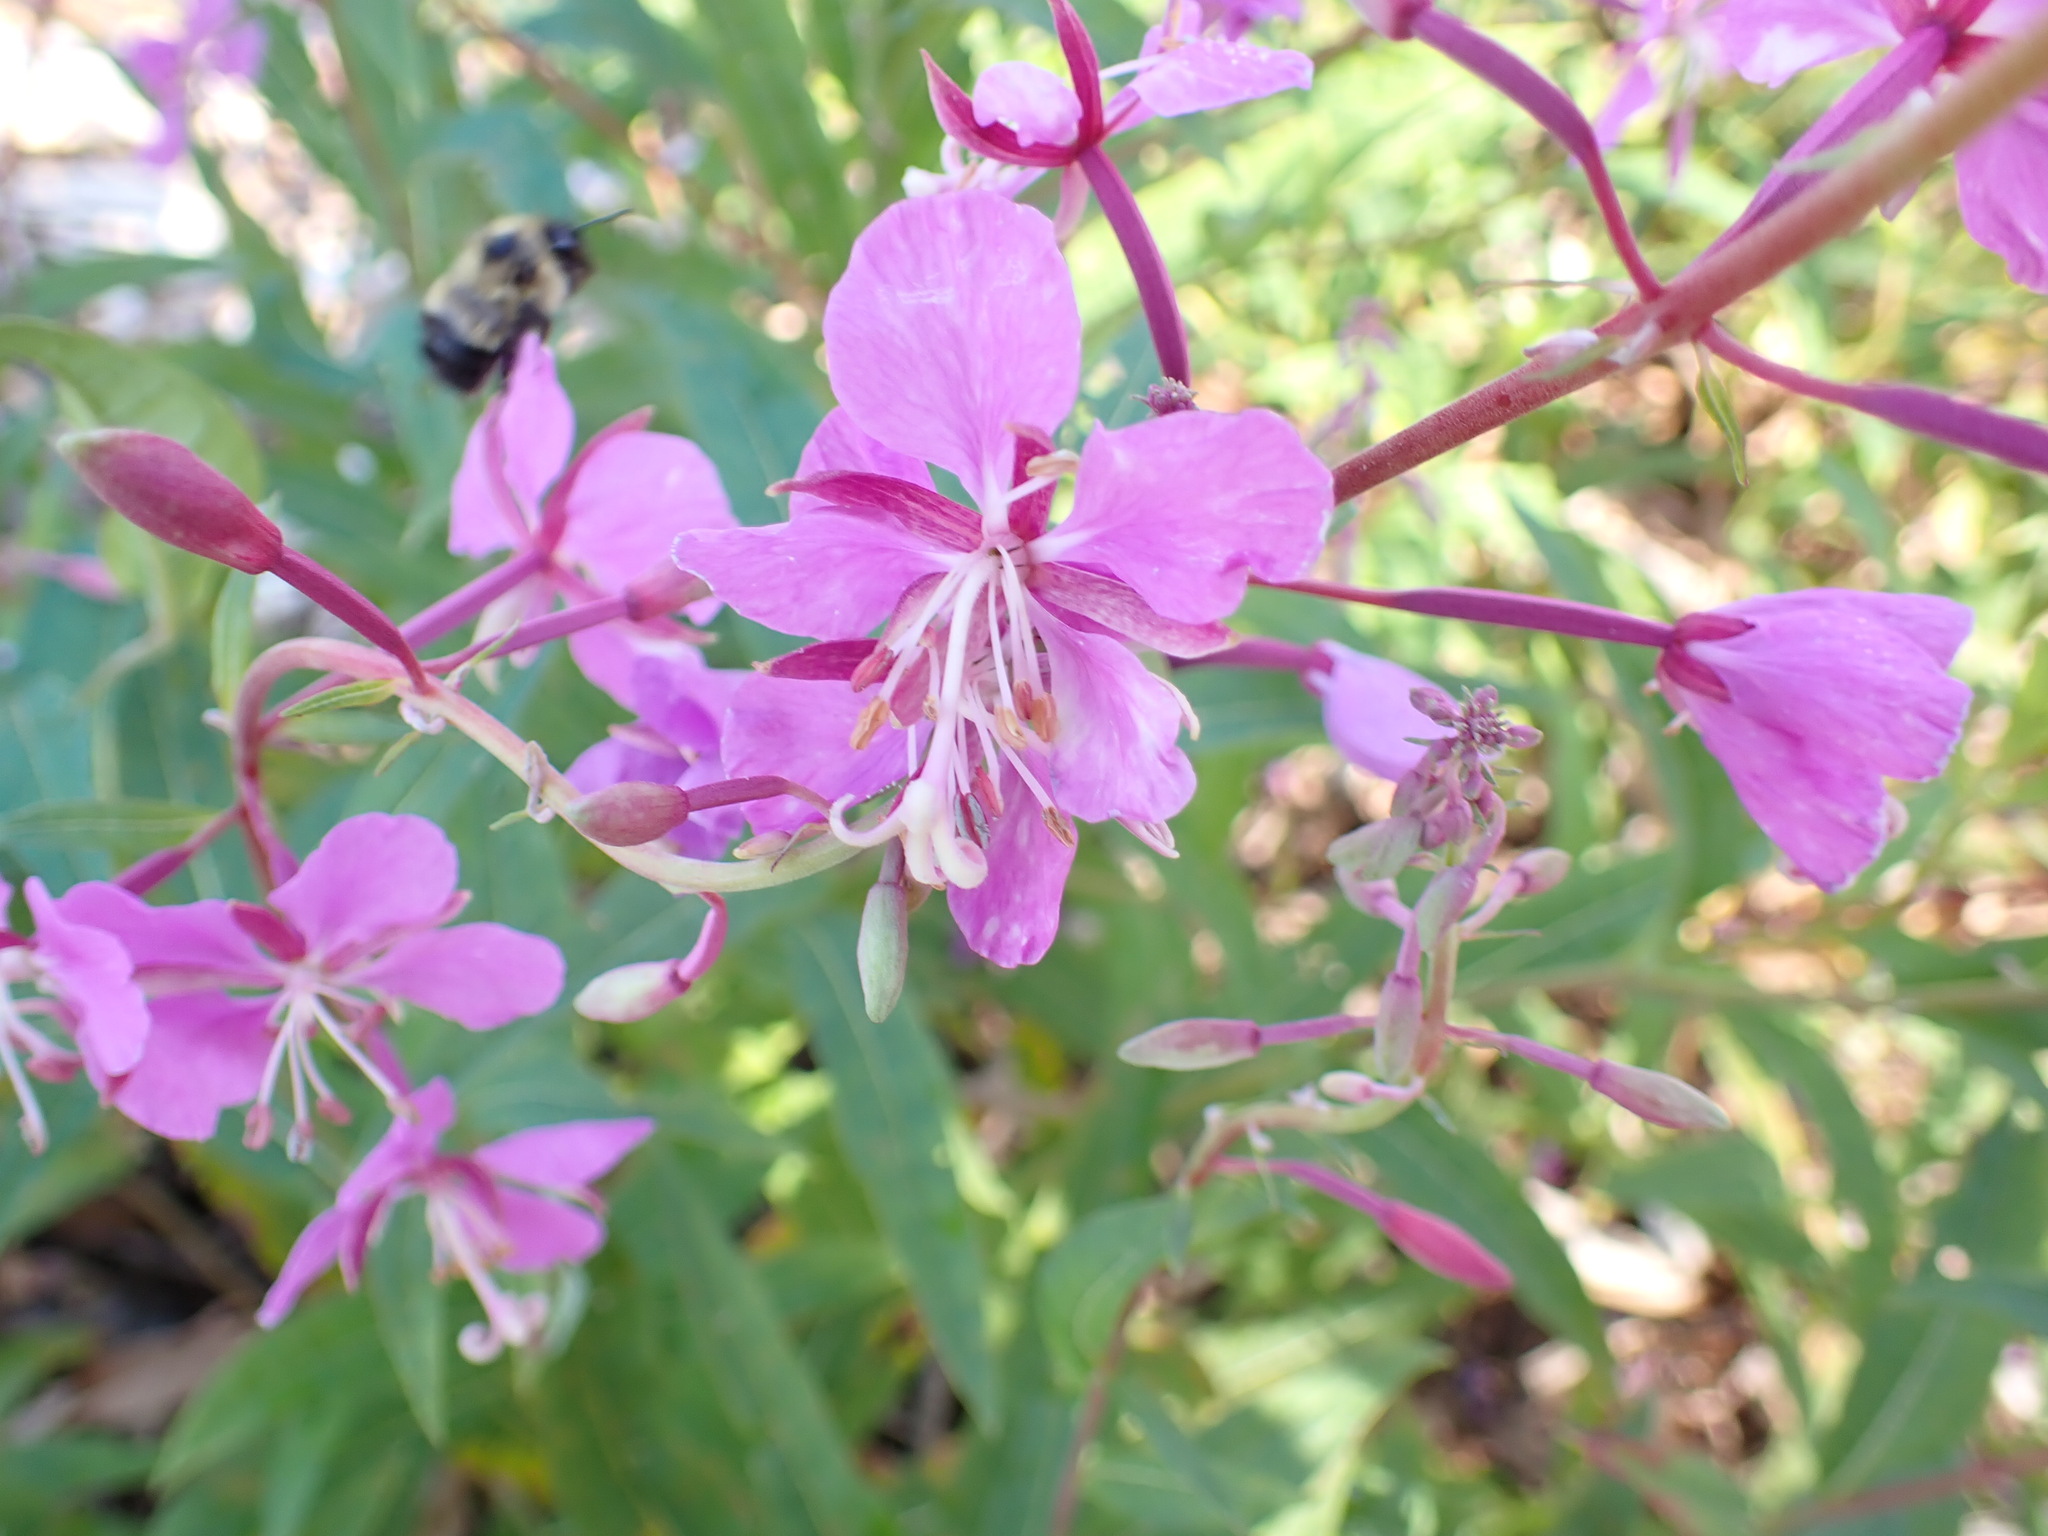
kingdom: Plantae
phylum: Tracheophyta
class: Magnoliopsida
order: Myrtales
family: Onagraceae
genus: Chamaenerion
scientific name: Chamaenerion angustifolium
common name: Fireweed
